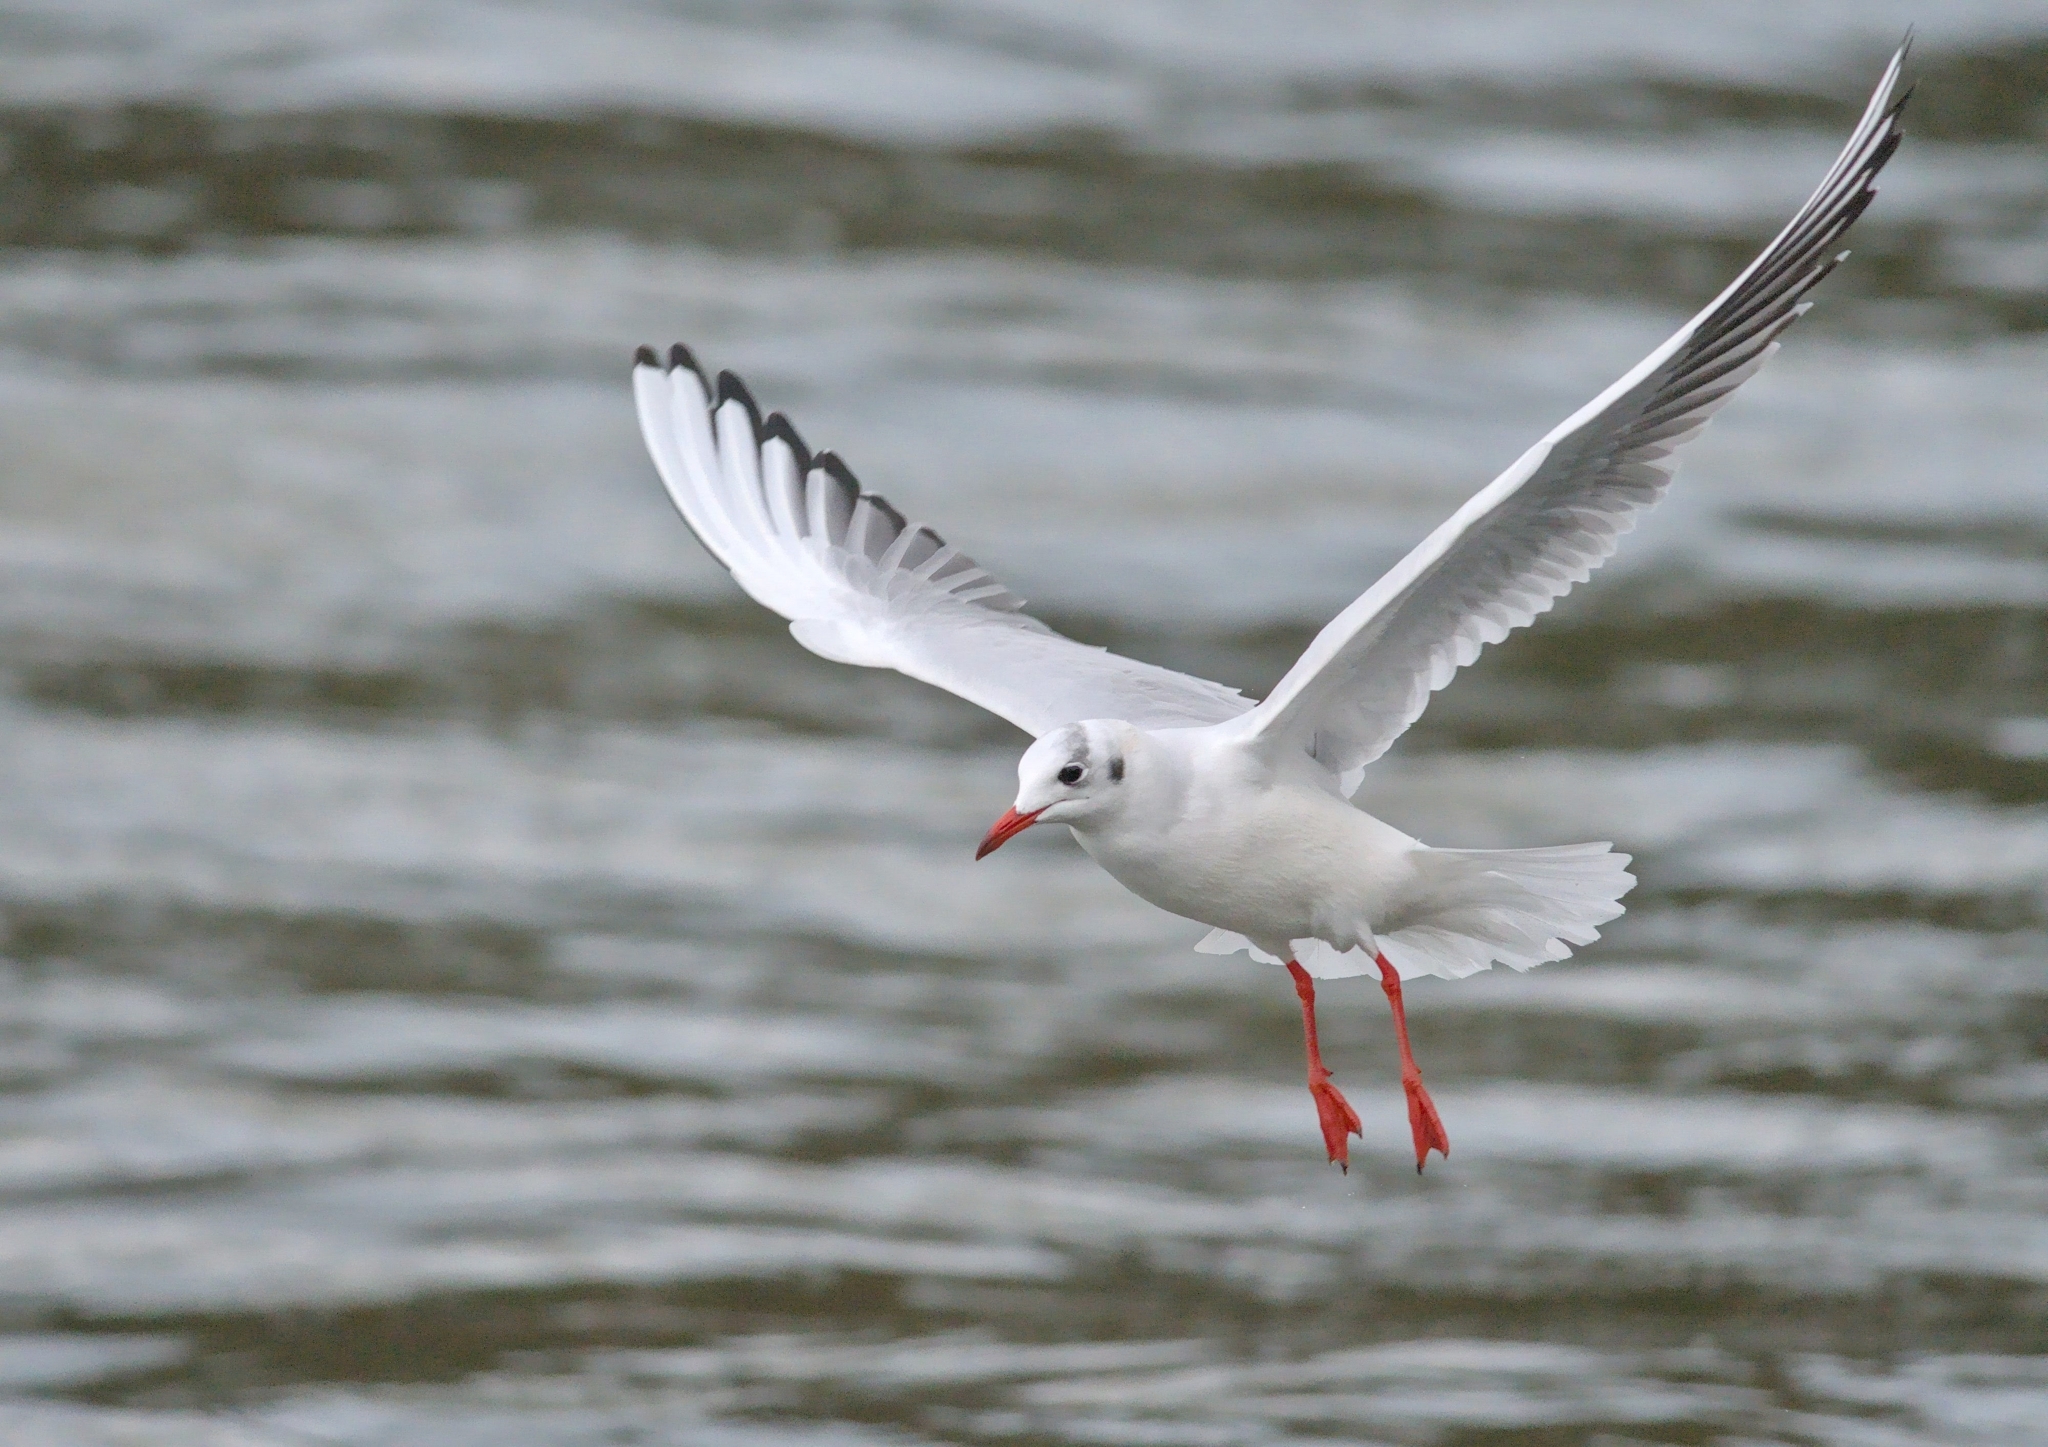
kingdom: Animalia
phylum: Chordata
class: Aves
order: Charadriiformes
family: Laridae
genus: Chroicocephalus
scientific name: Chroicocephalus ridibundus
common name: Black-headed gull
